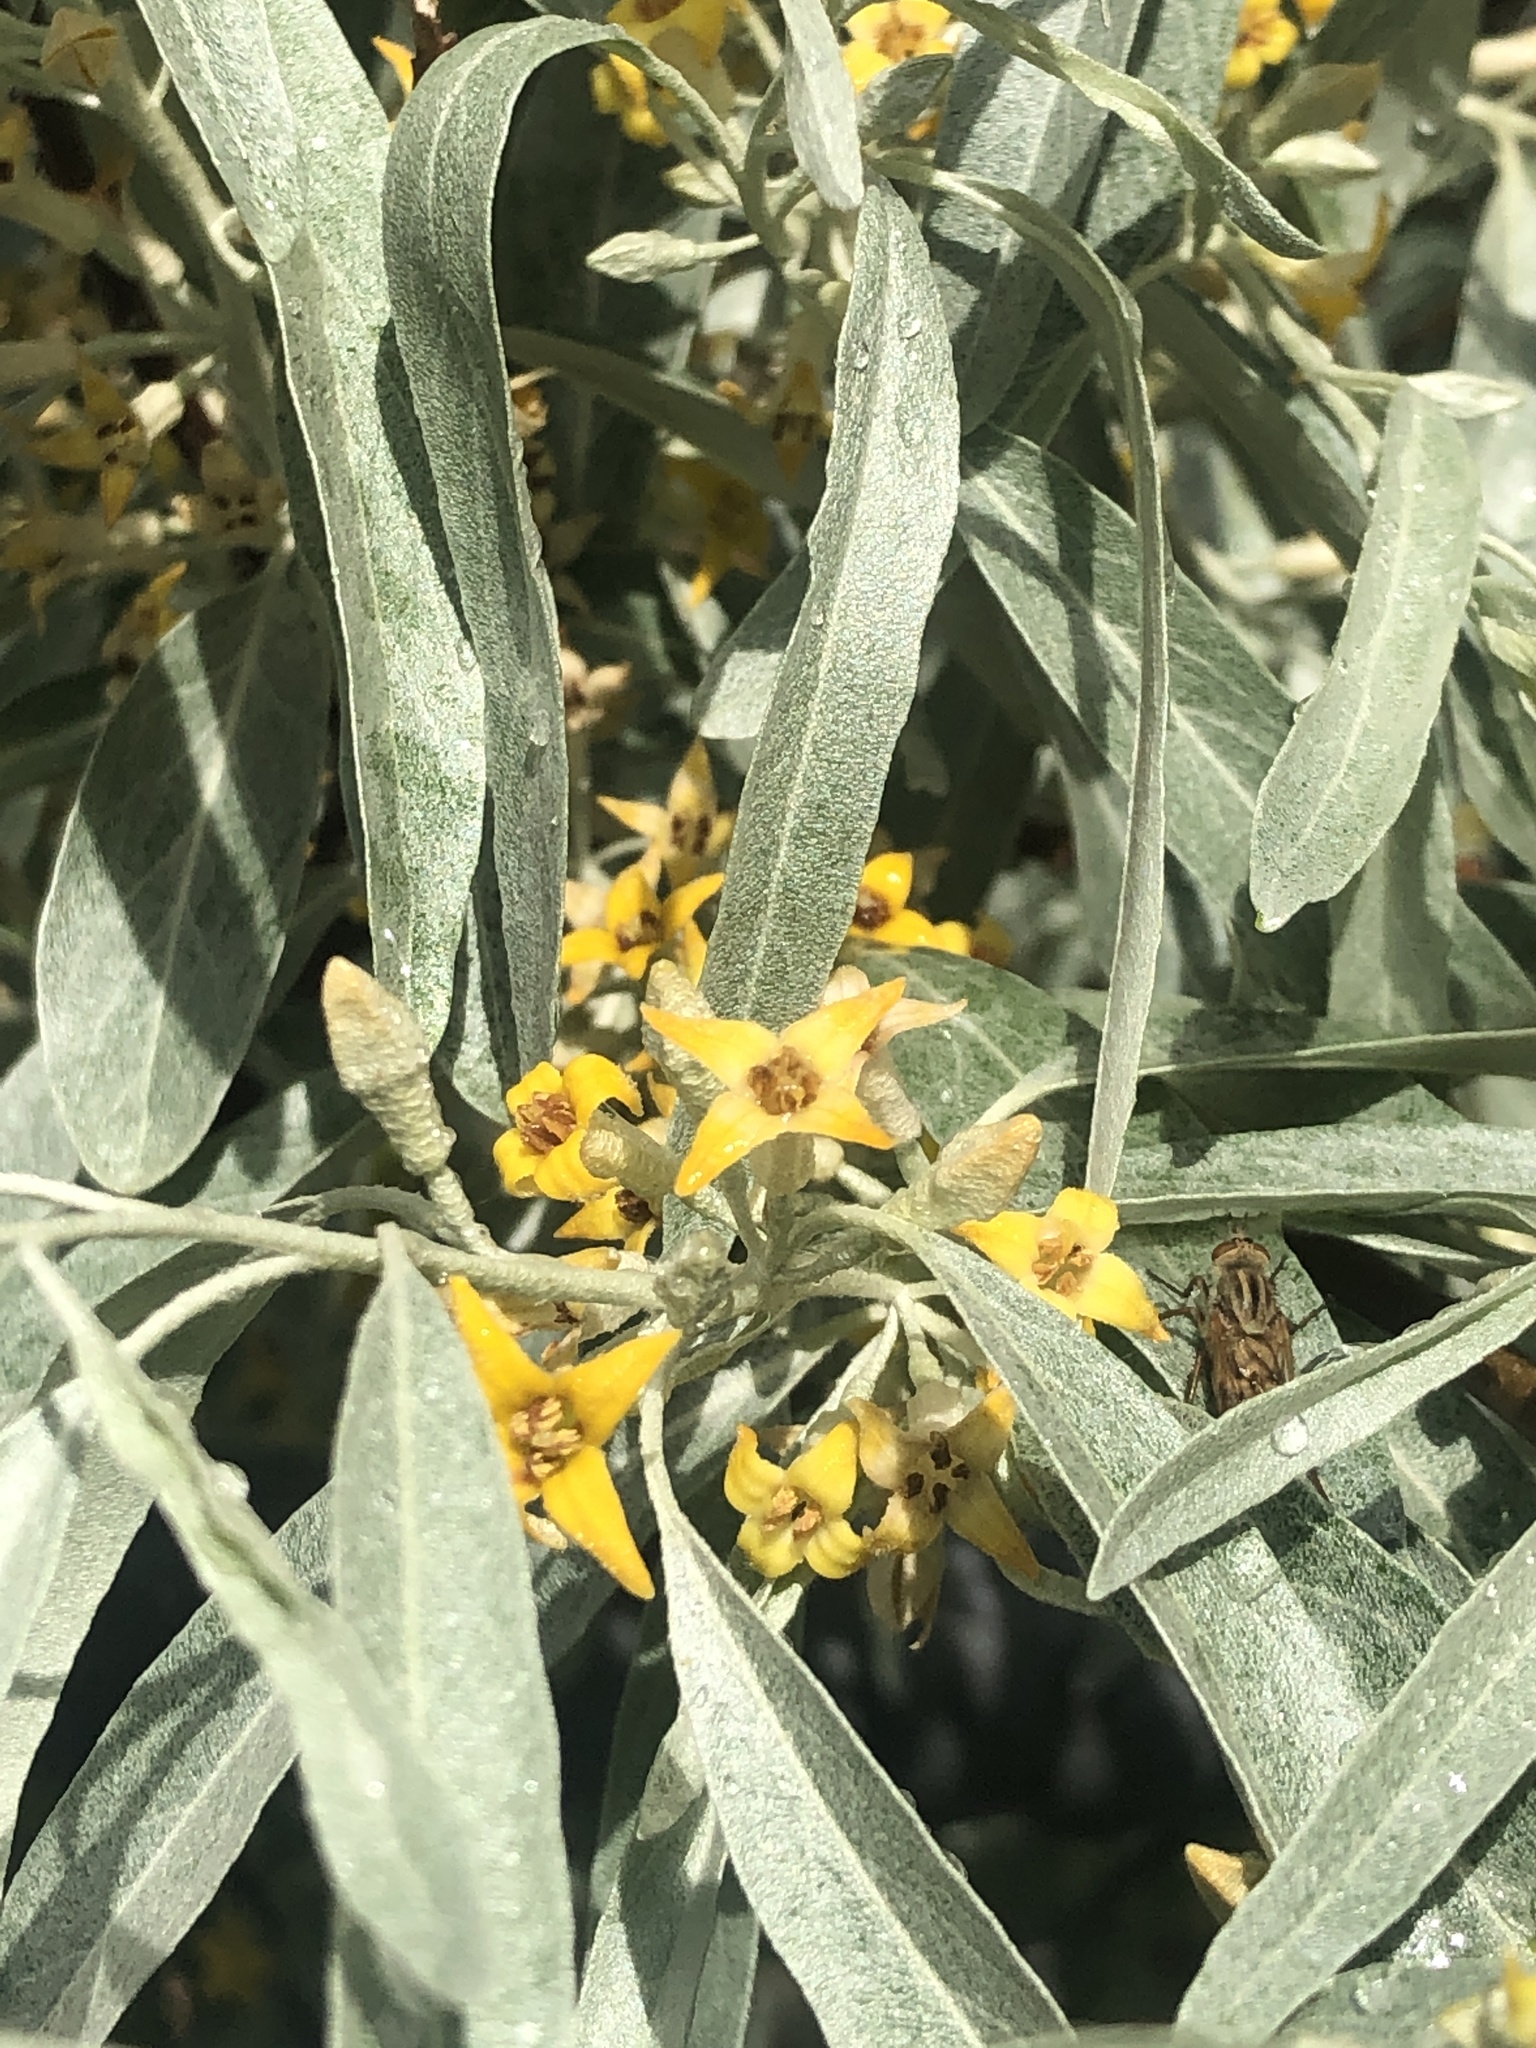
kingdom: Plantae
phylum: Tracheophyta
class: Magnoliopsida
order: Rosales
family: Elaeagnaceae
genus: Elaeagnus
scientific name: Elaeagnus angustifolia
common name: Russian olive
